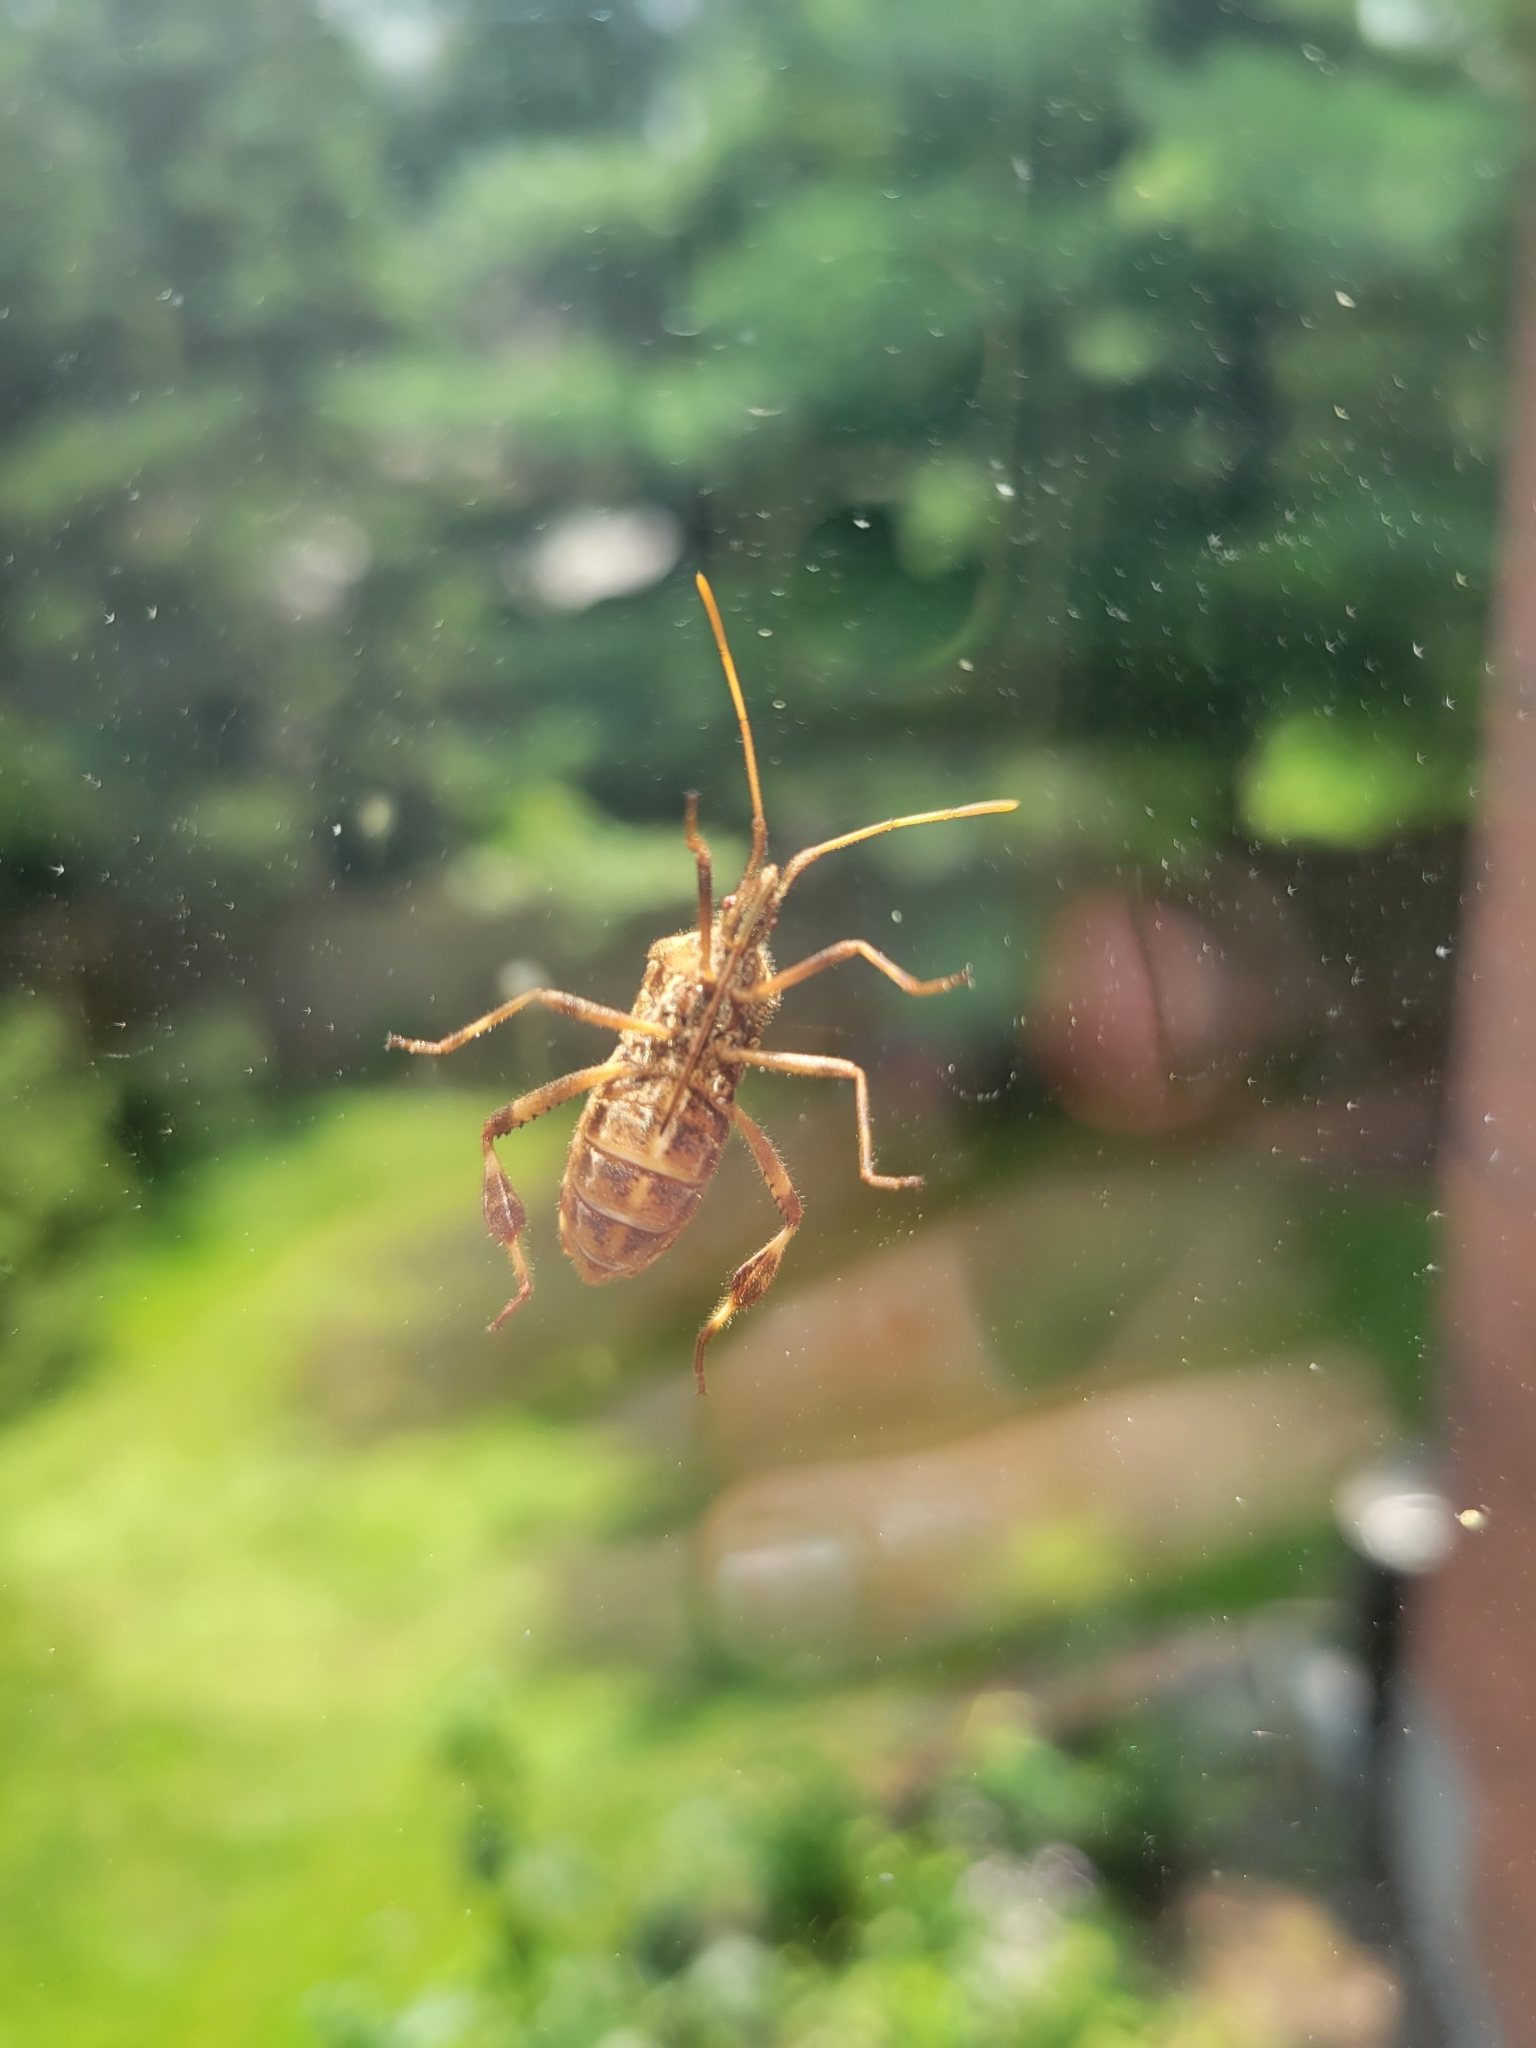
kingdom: Animalia
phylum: Arthropoda
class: Insecta
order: Hemiptera
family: Coreidae
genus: Leptoglossus
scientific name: Leptoglossus occidentalis
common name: Western conifer-seed bug
